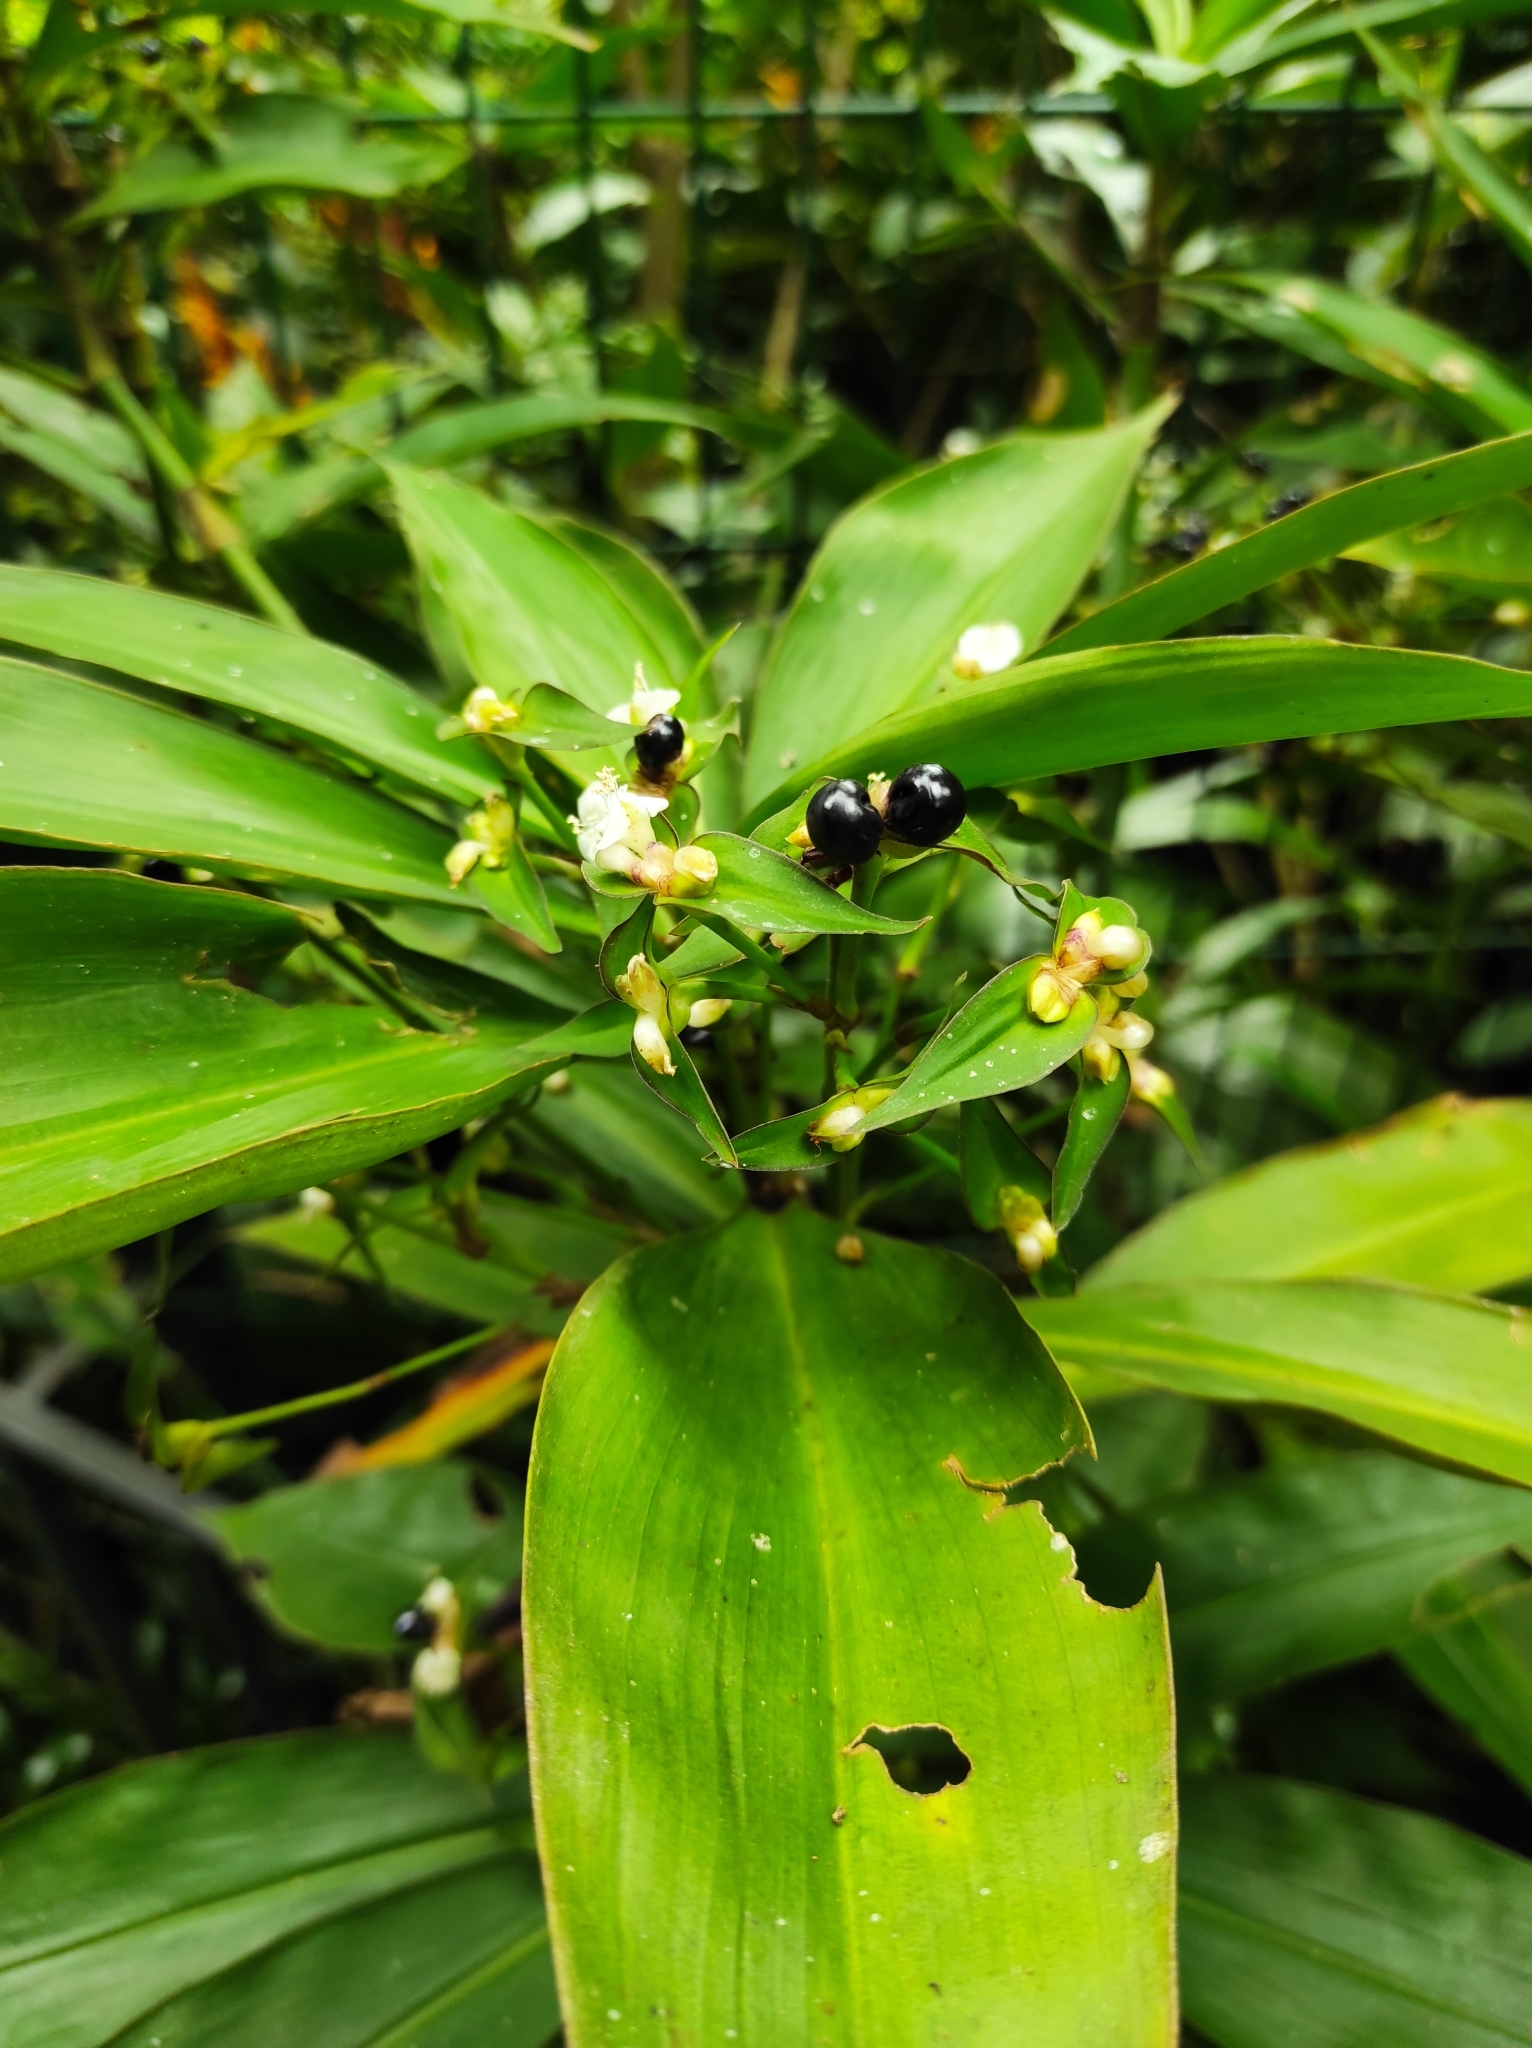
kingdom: Plantae
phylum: Tracheophyta
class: Liliopsida
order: Commelinales
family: Commelinaceae
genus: Tradescantia
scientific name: Tradescantia zanonia
